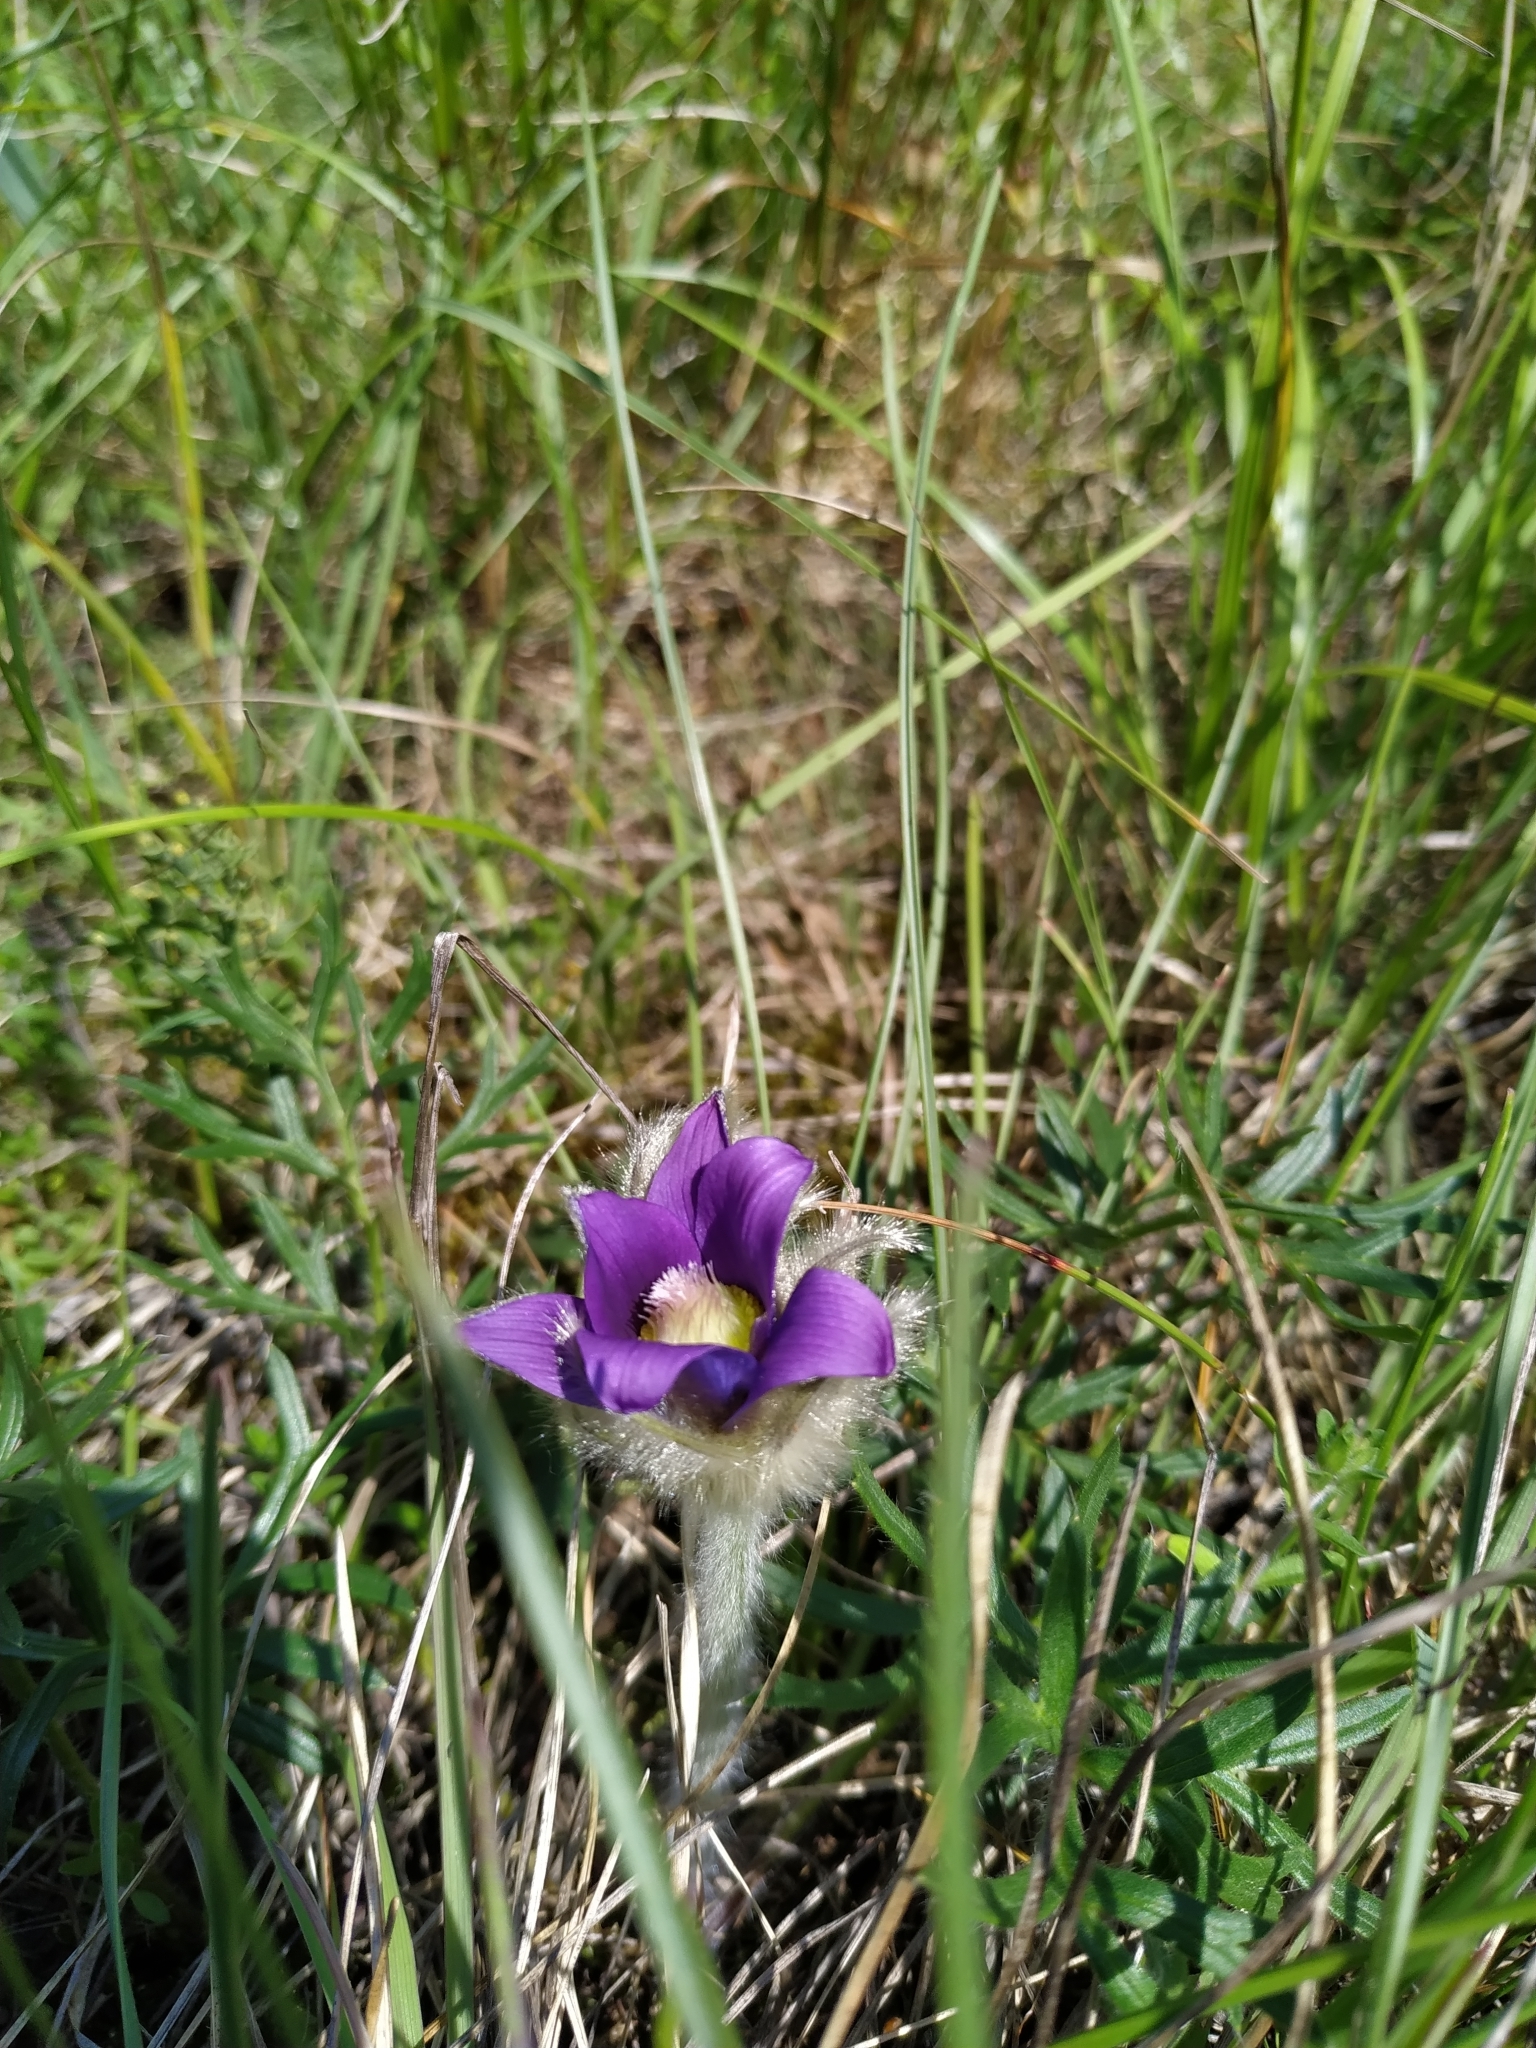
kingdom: Plantae
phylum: Tracheophyta
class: Magnoliopsida
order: Ranunculales
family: Ranunculaceae
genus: Pulsatilla
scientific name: Pulsatilla grandis
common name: Greater pasque flower
